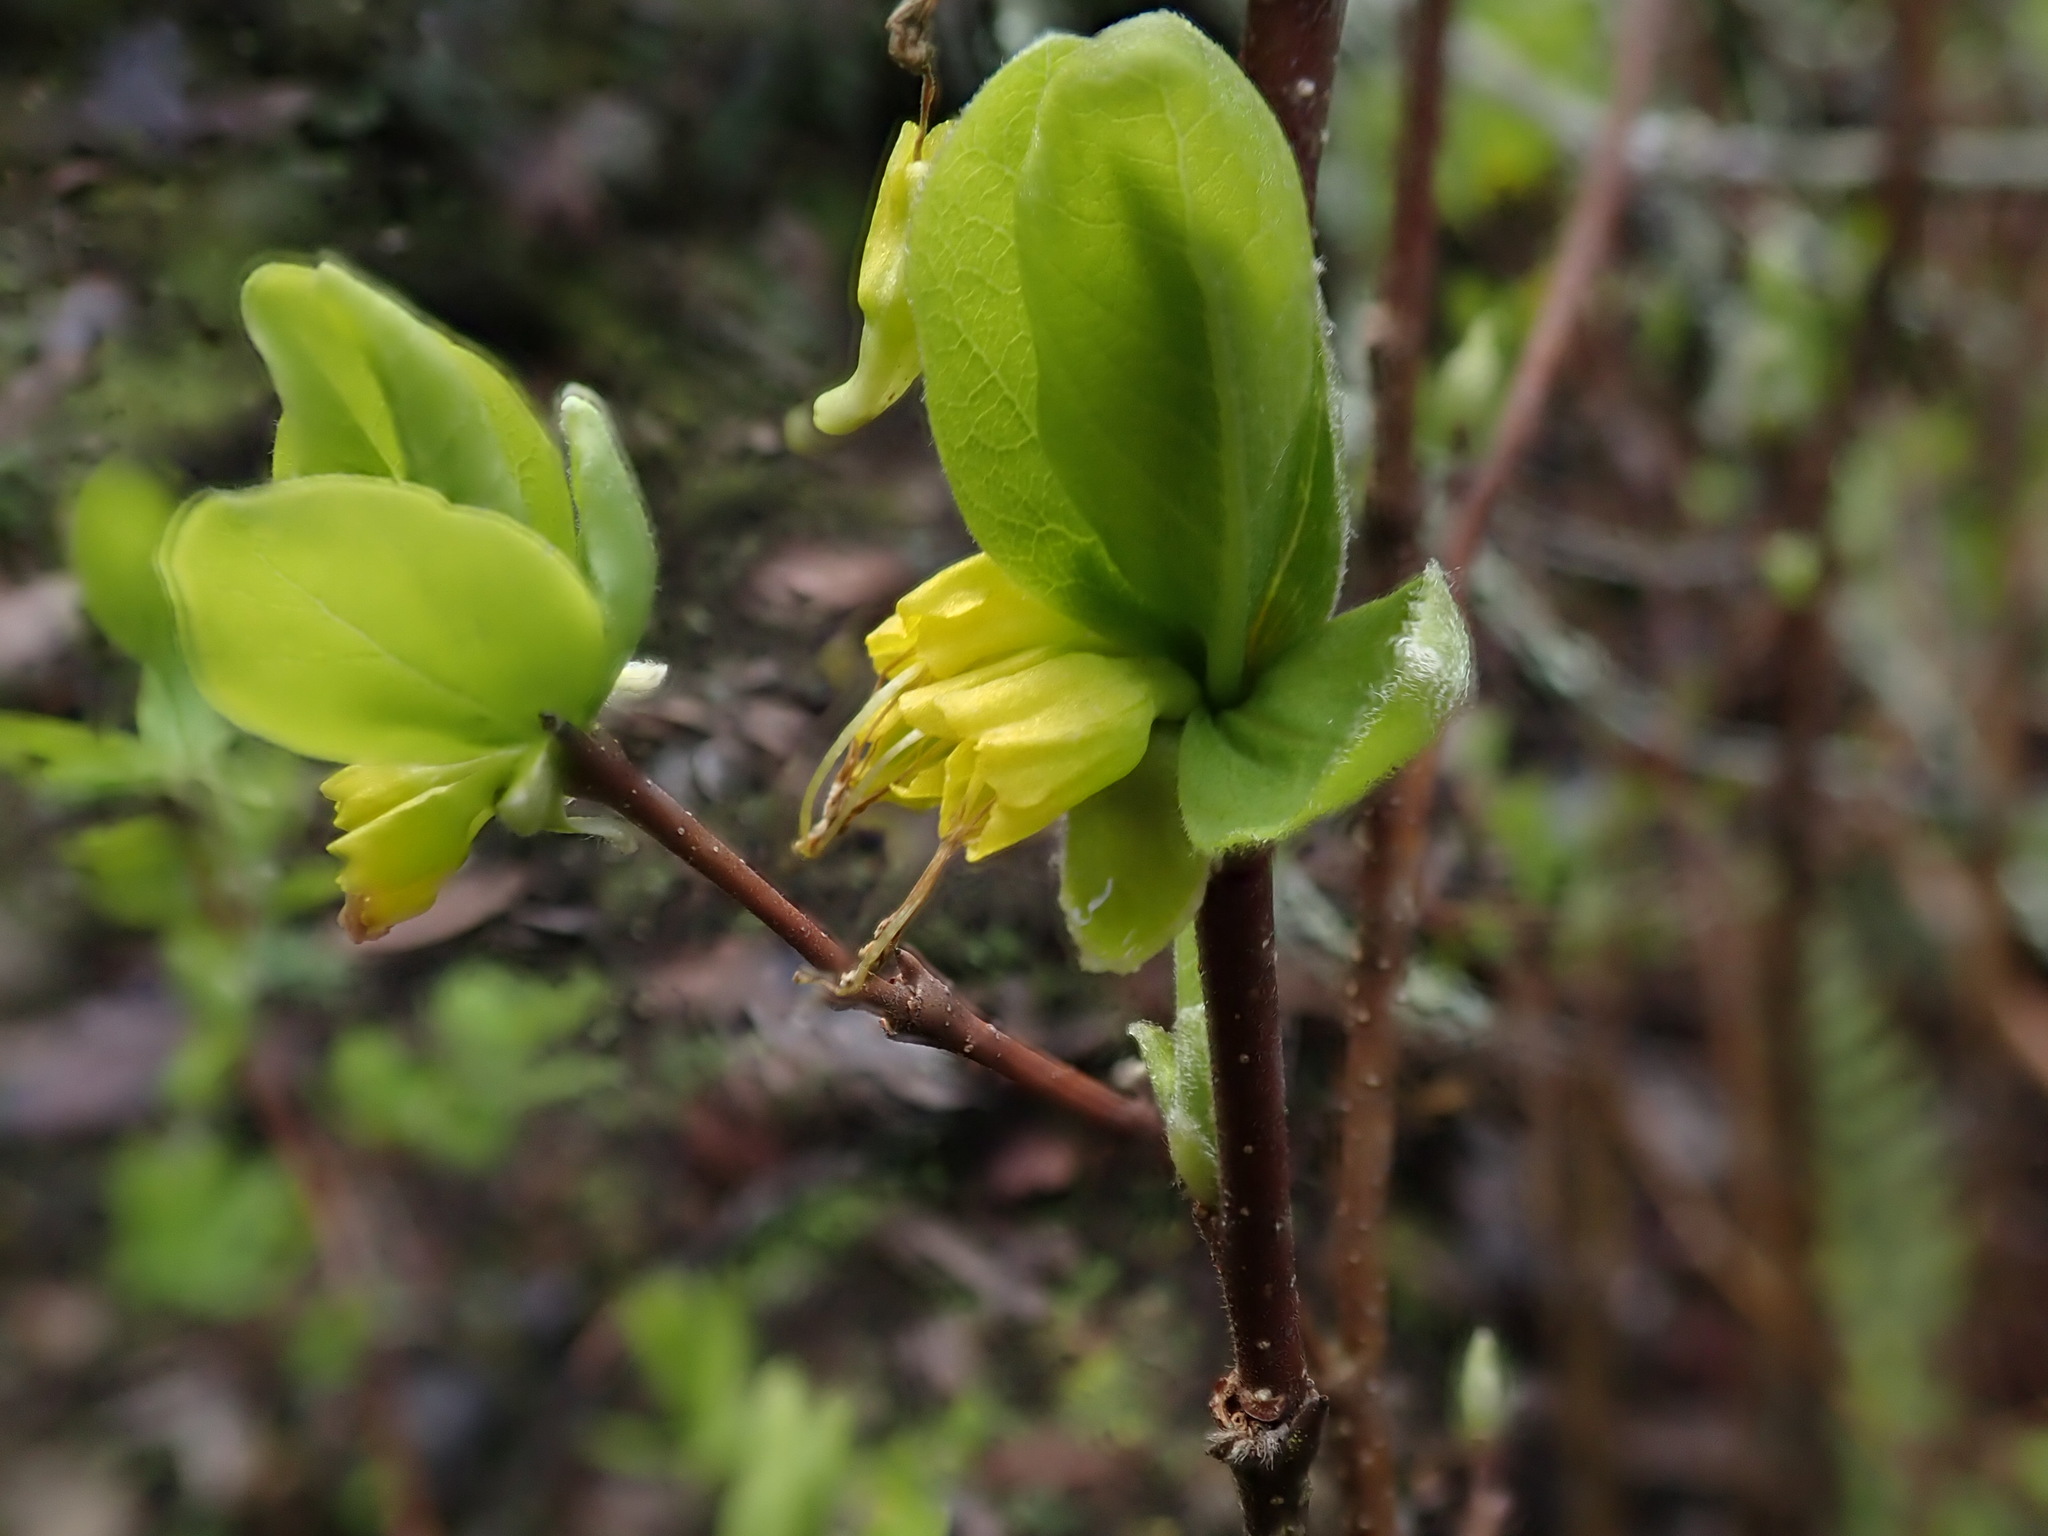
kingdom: Plantae
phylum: Tracheophyta
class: Magnoliopsida
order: Malvales
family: Thymelaeaceae
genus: Dirca
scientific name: Dirca occidentalis
